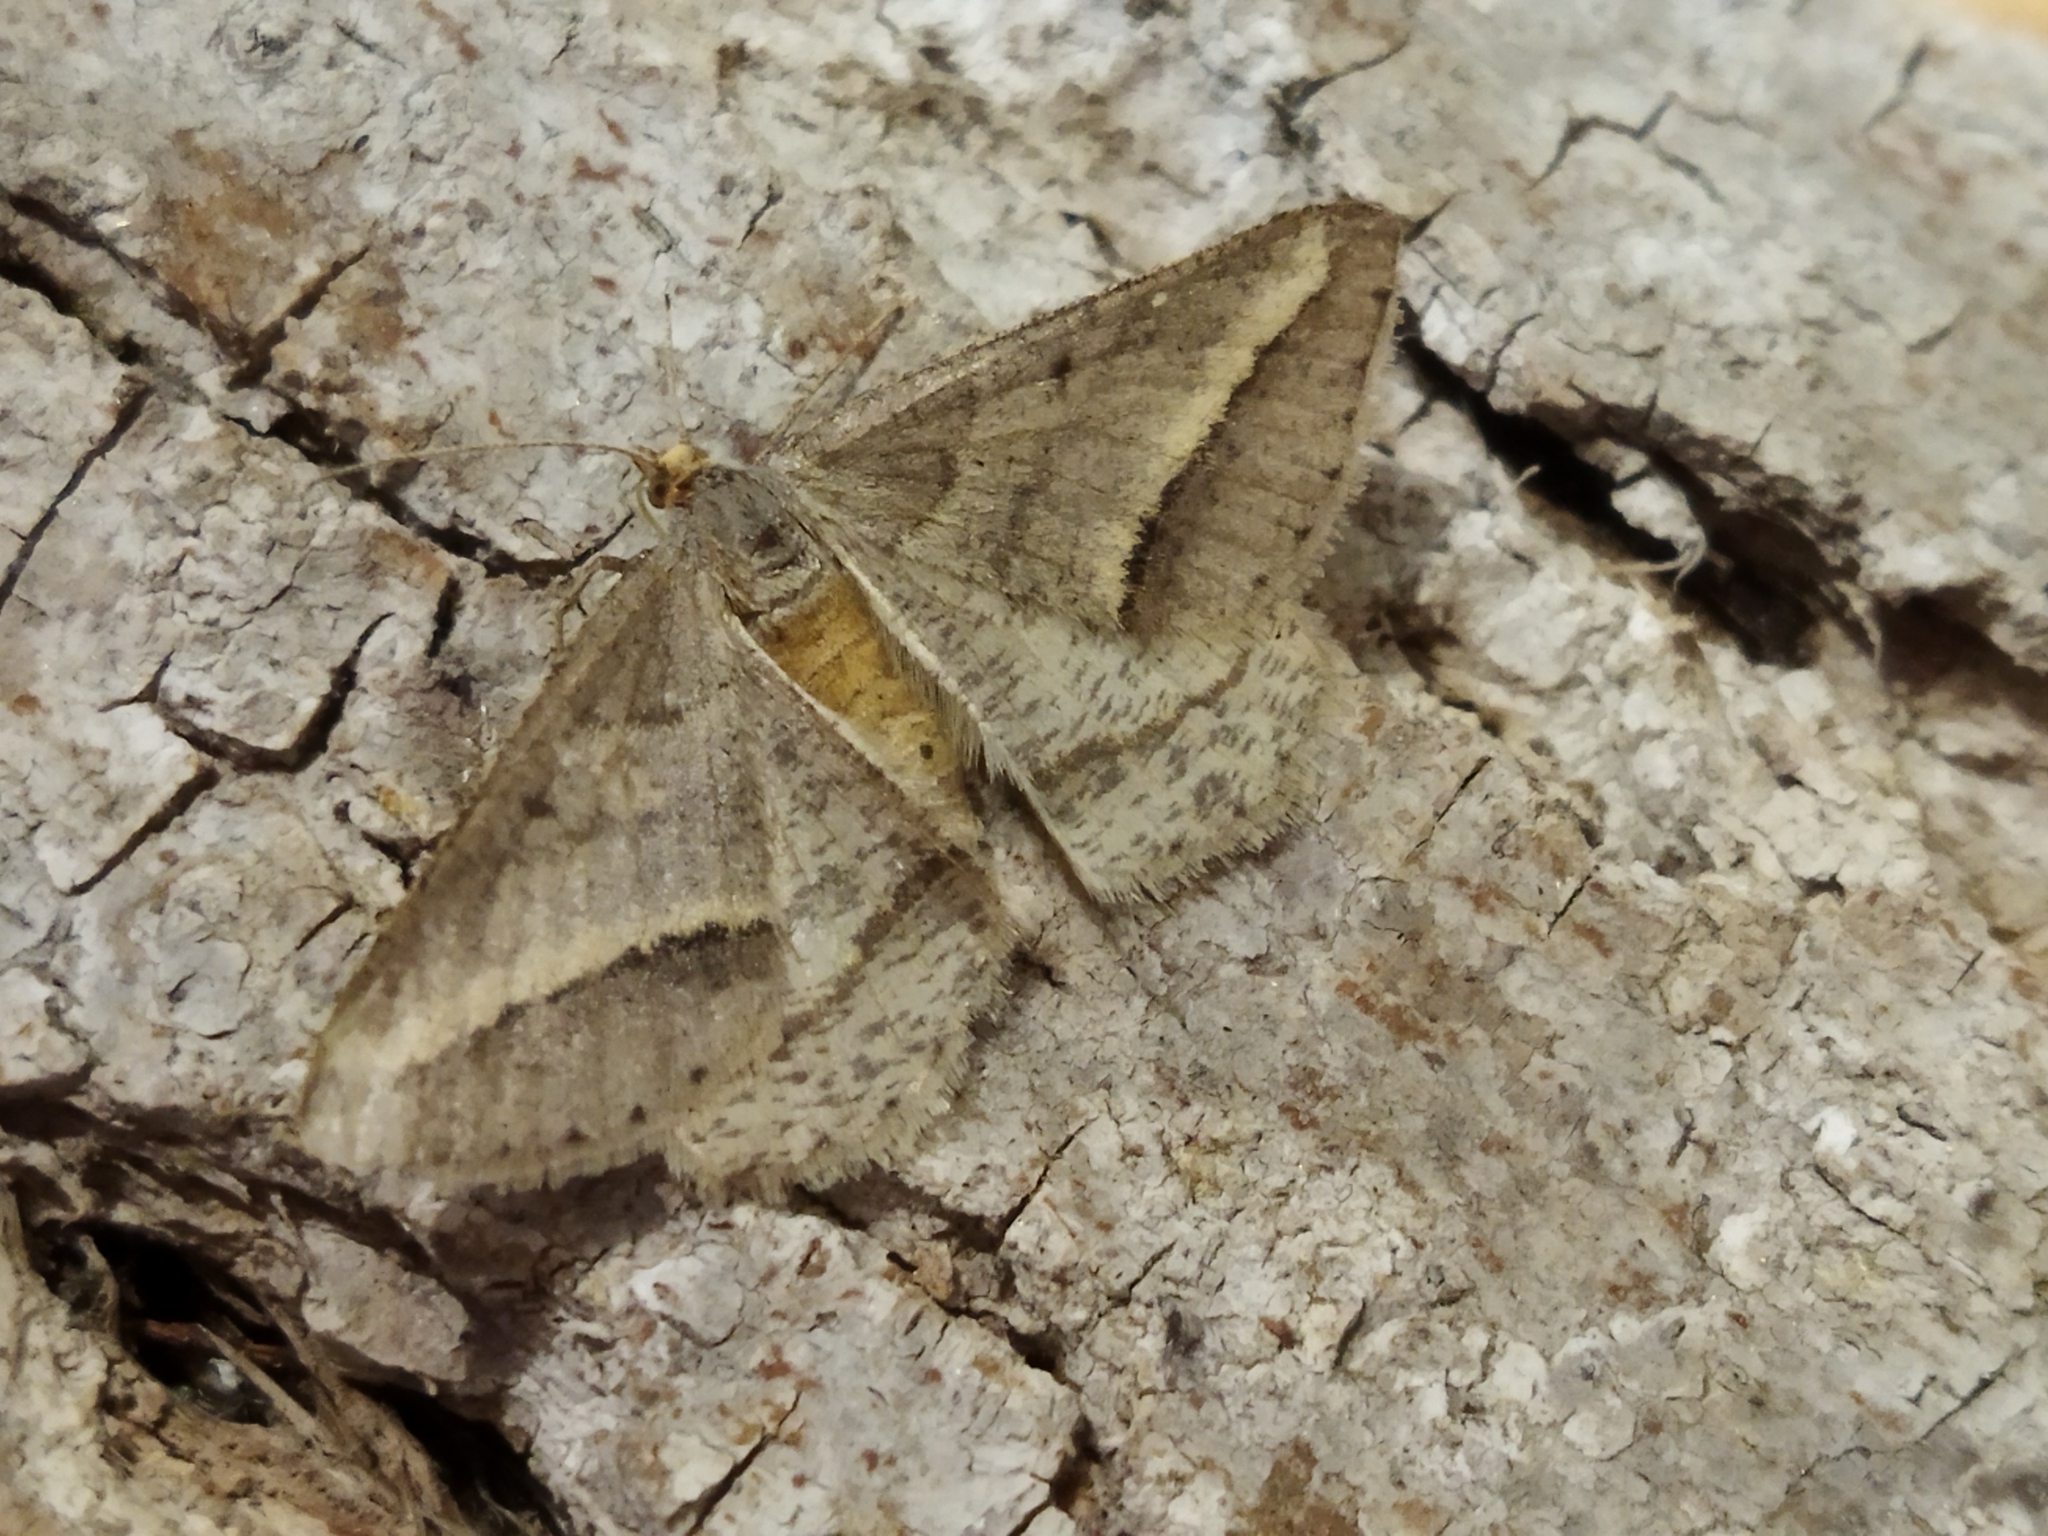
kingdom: Animalia
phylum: Arthropoda
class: Insecta
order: Lepidoptera
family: Geometridae
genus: Tephrina
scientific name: Tephrina arenacearia
